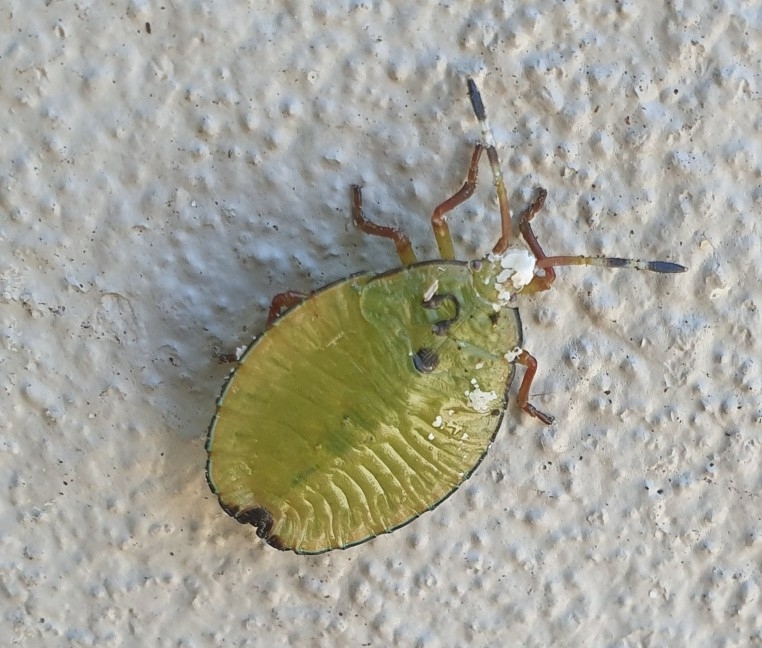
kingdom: Animalia
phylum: Arthropoda
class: Insecta
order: Hemiptera
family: Tessaratomidae
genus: Musgraveia
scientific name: Musgraveia sulciventris
